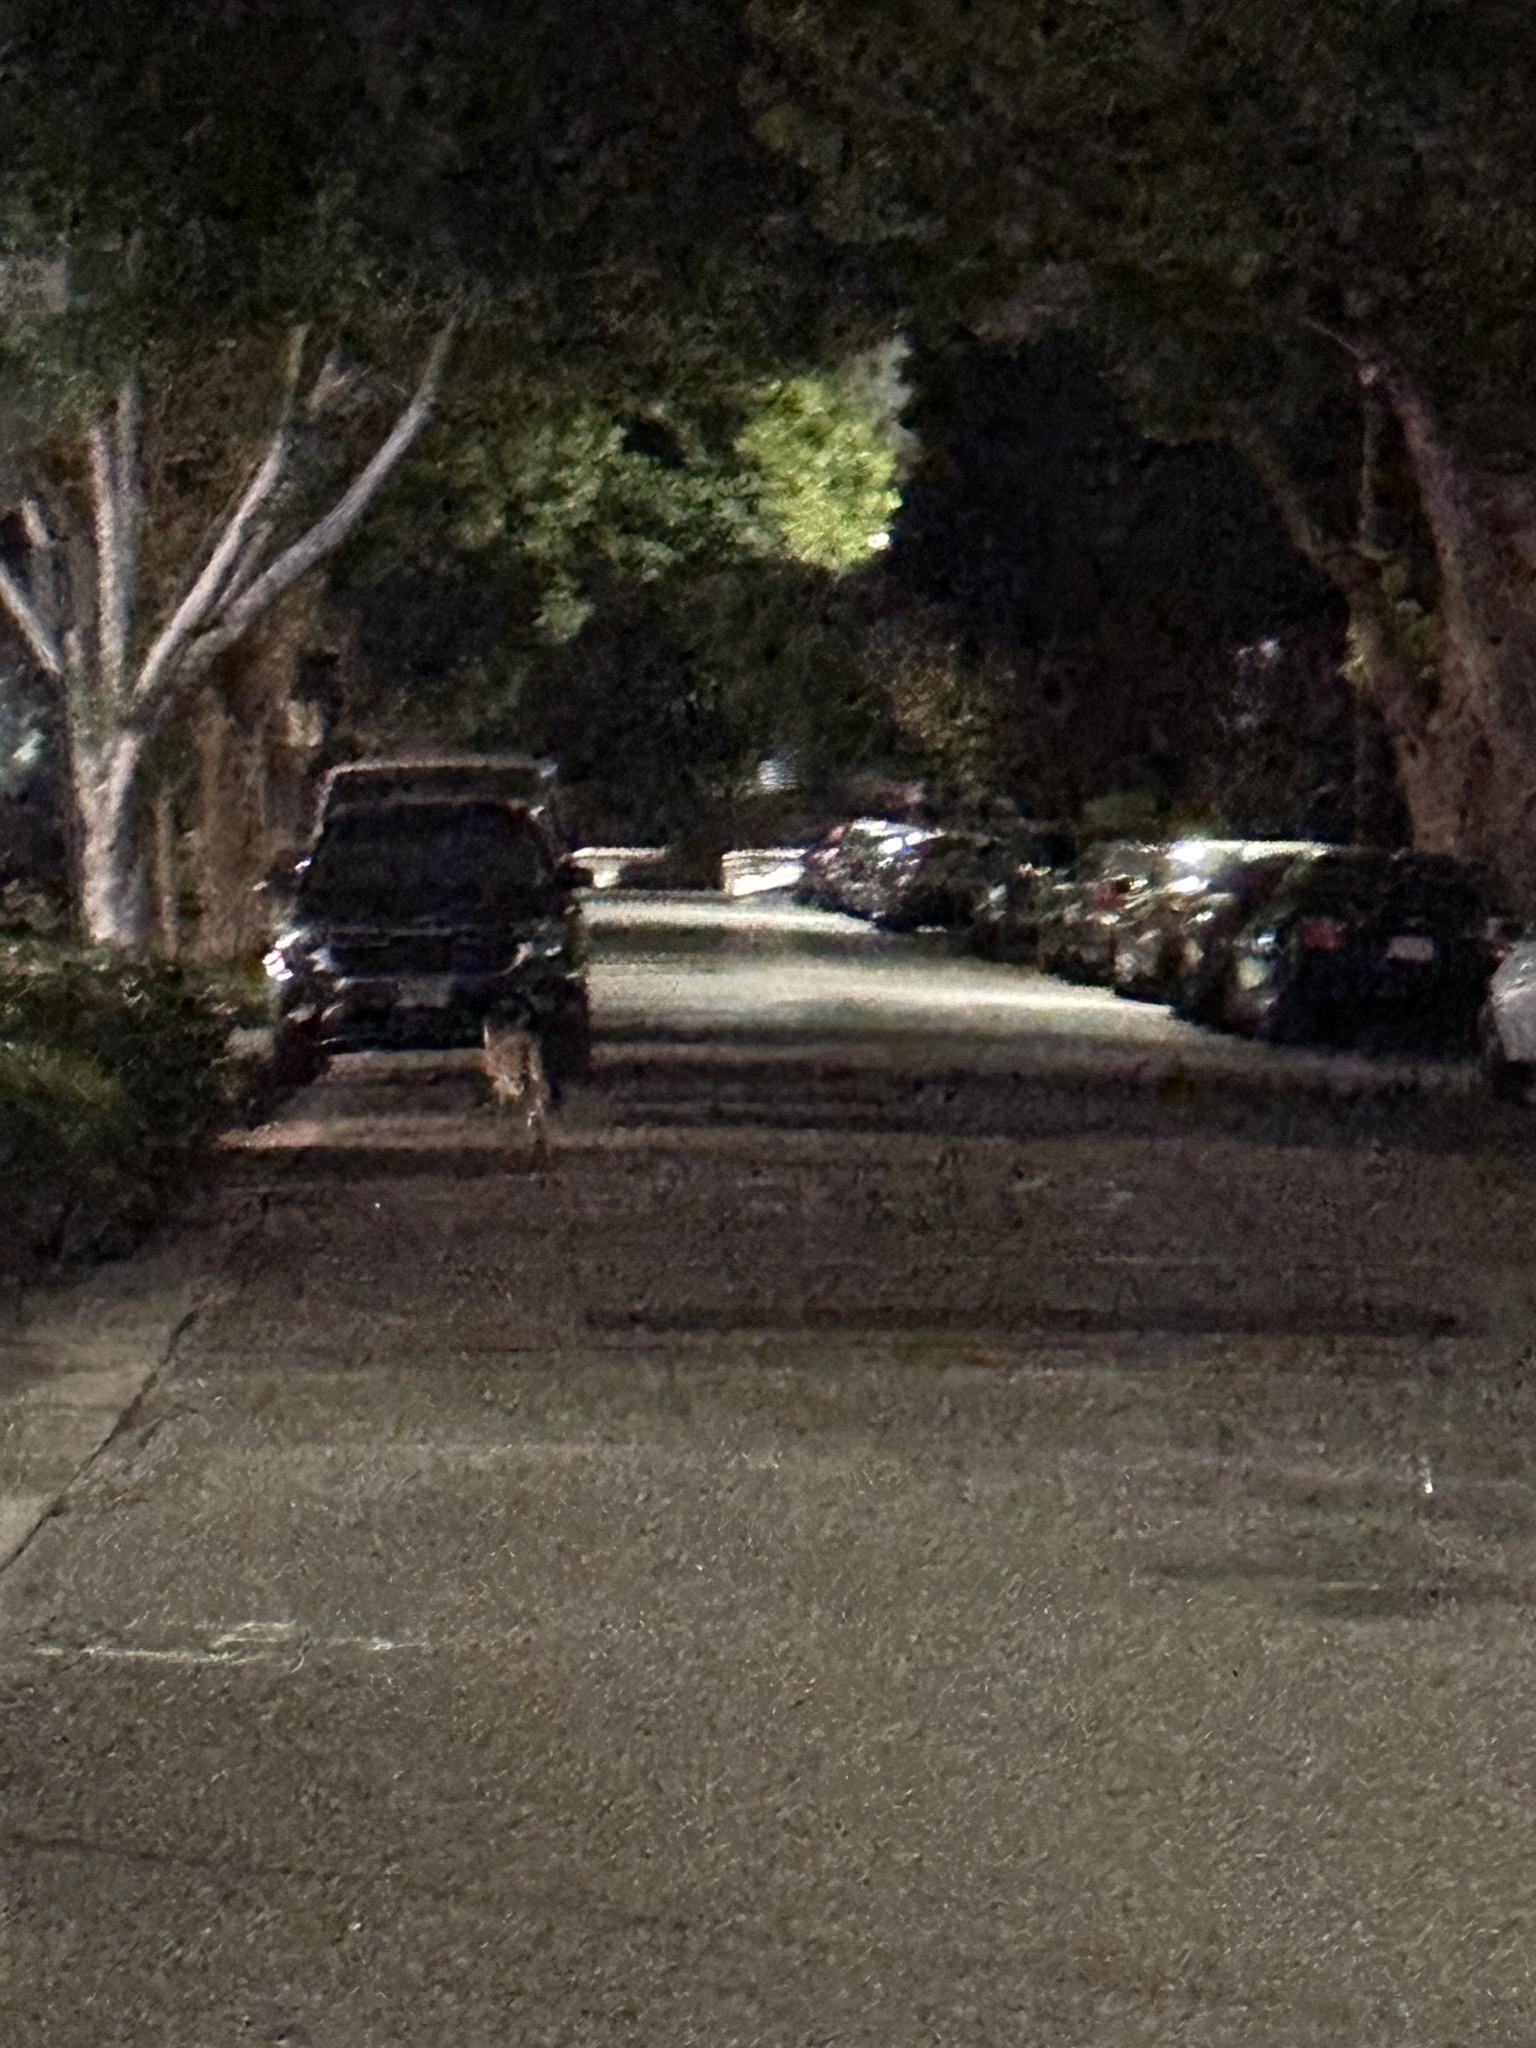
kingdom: Animalia
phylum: Chordata
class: Mammalia
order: Carnivora
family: Canidae
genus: Canis
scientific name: Canis latrans
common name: Coyote
